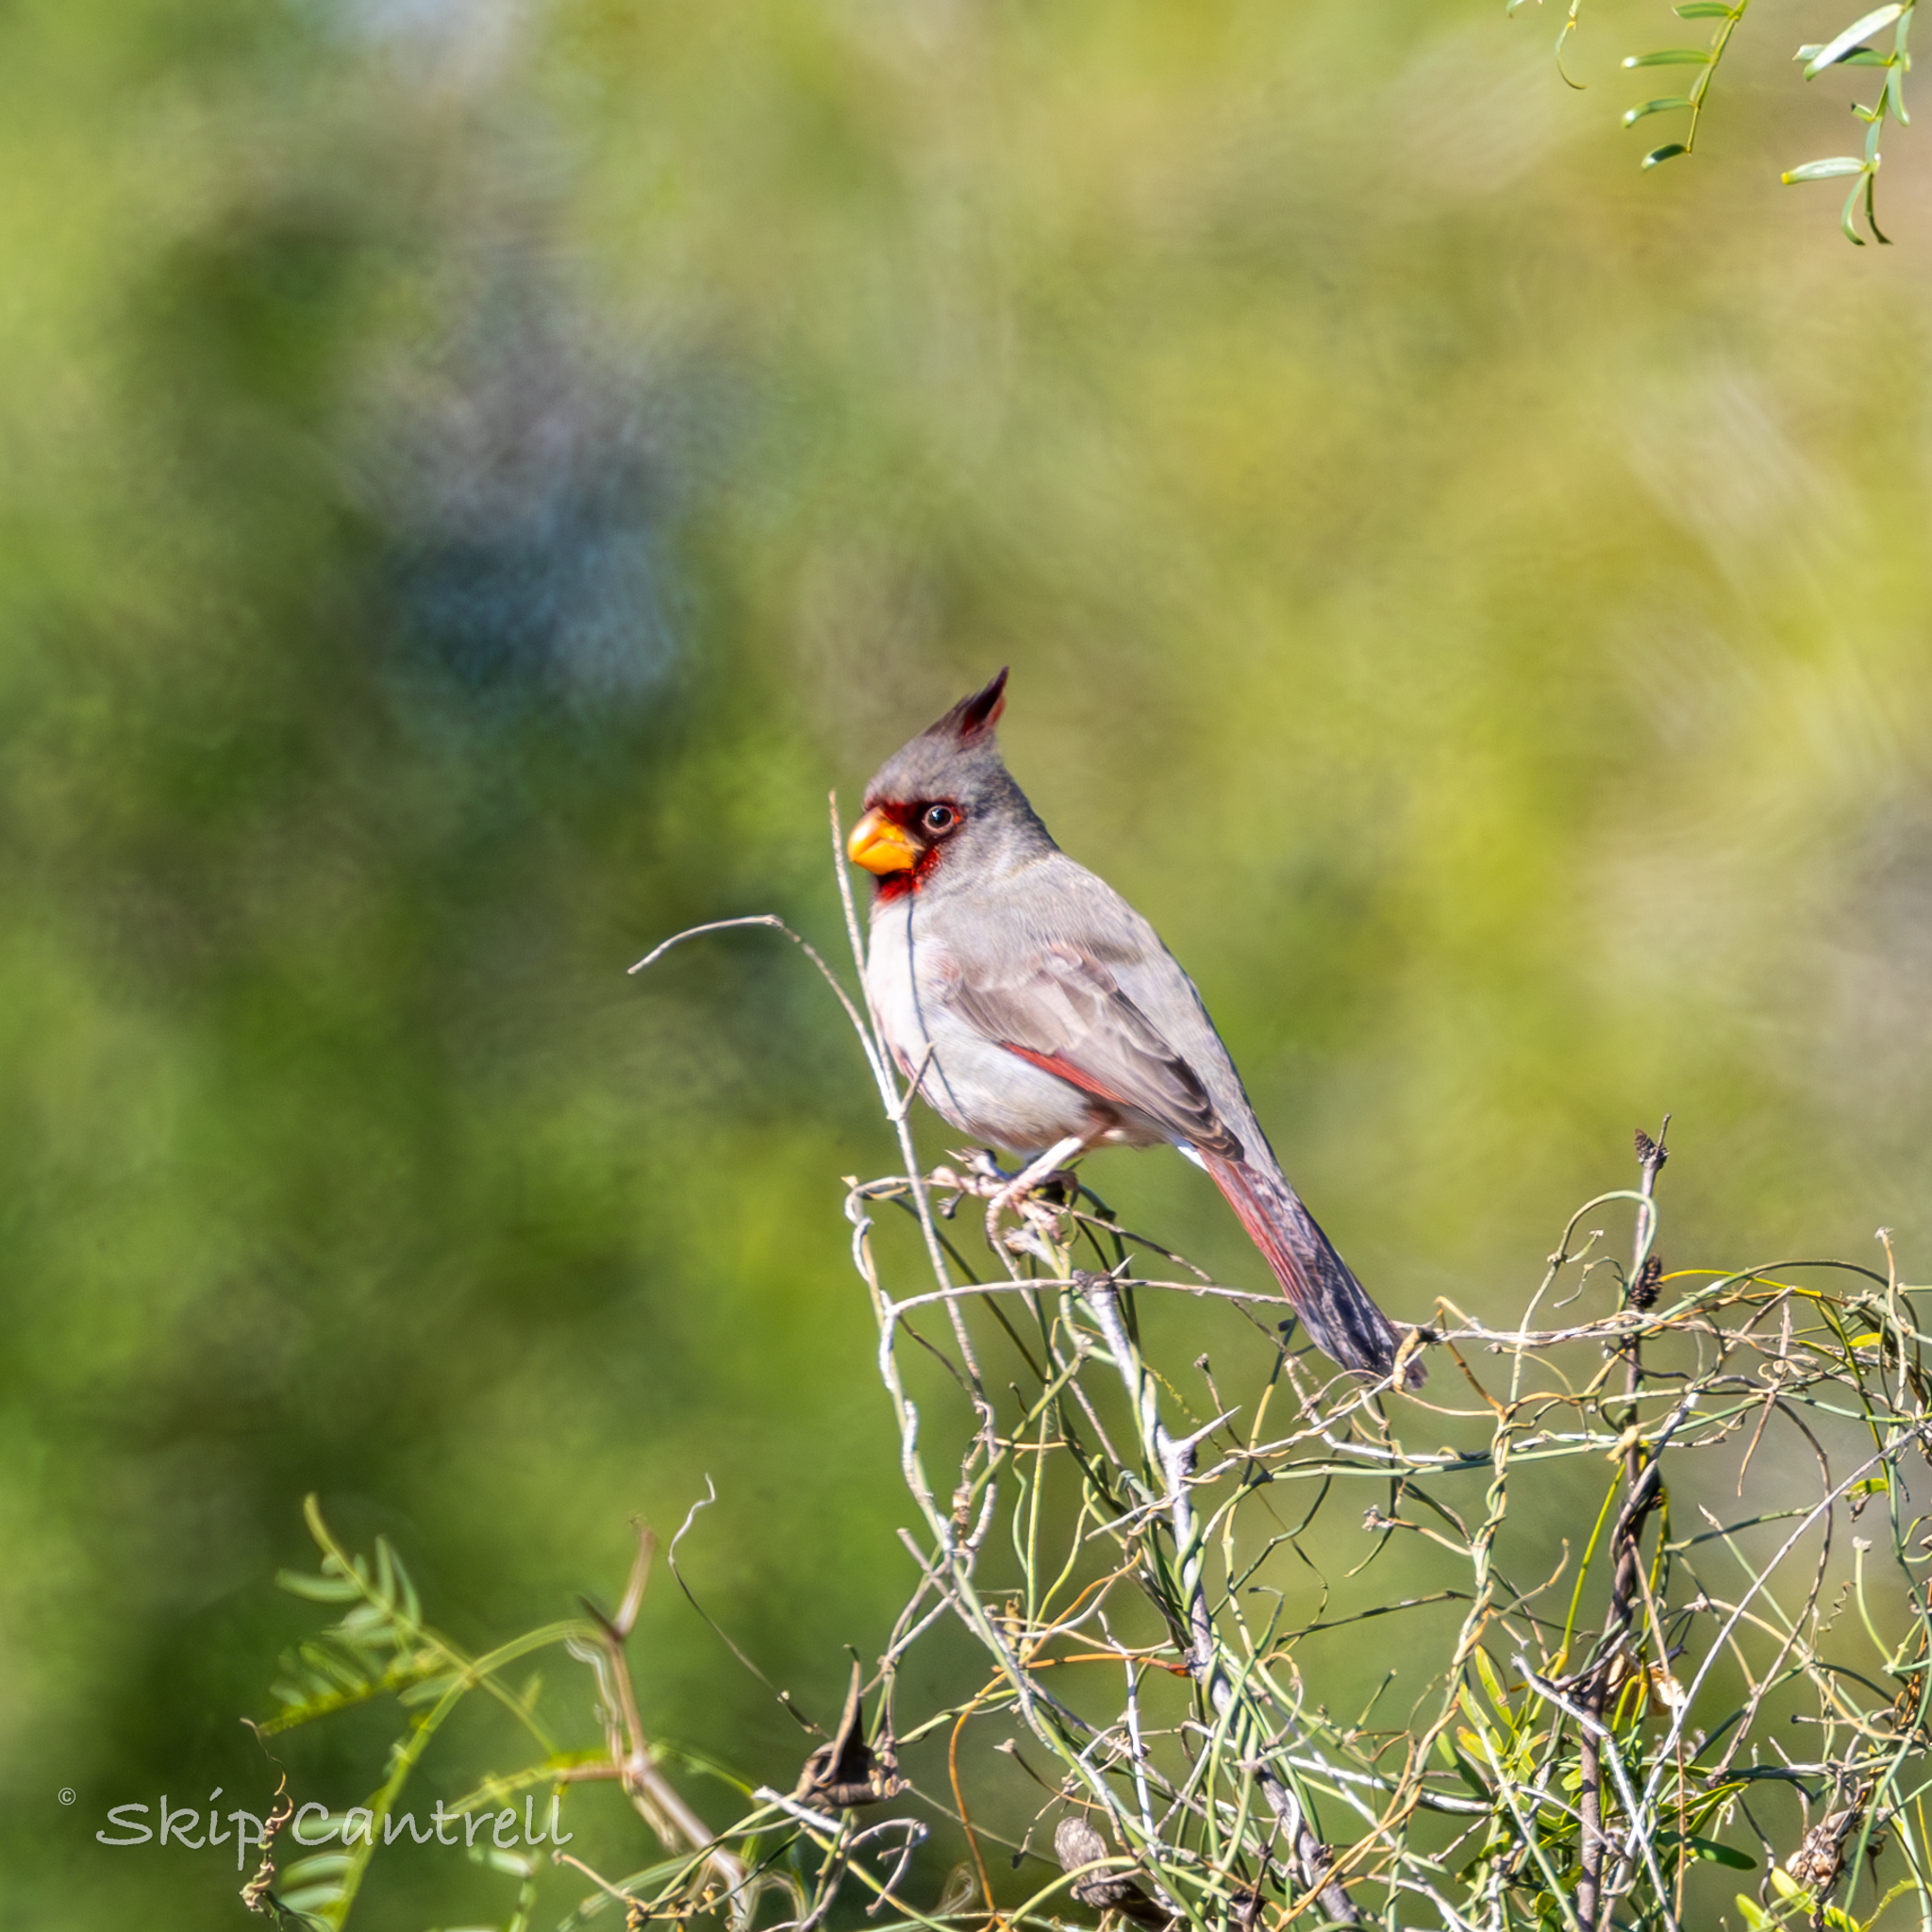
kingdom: Animalia
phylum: Chordata
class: Aves
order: Passeriformes
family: Cardinalidae
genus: Cardinalis
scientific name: Cardinalis sinuatus
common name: Pyrrhuloxia
